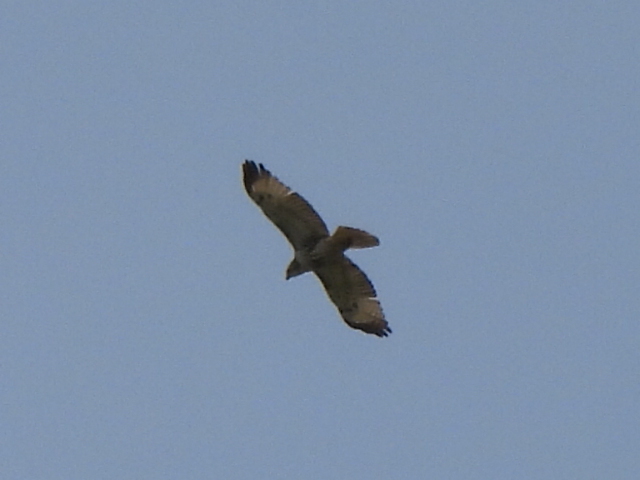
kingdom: Animalia
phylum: Chordata
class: Aves
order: Accipitriformes
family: Accipitridae
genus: Buteo
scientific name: Buteo jamaicensis
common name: Red-tailed hawk
